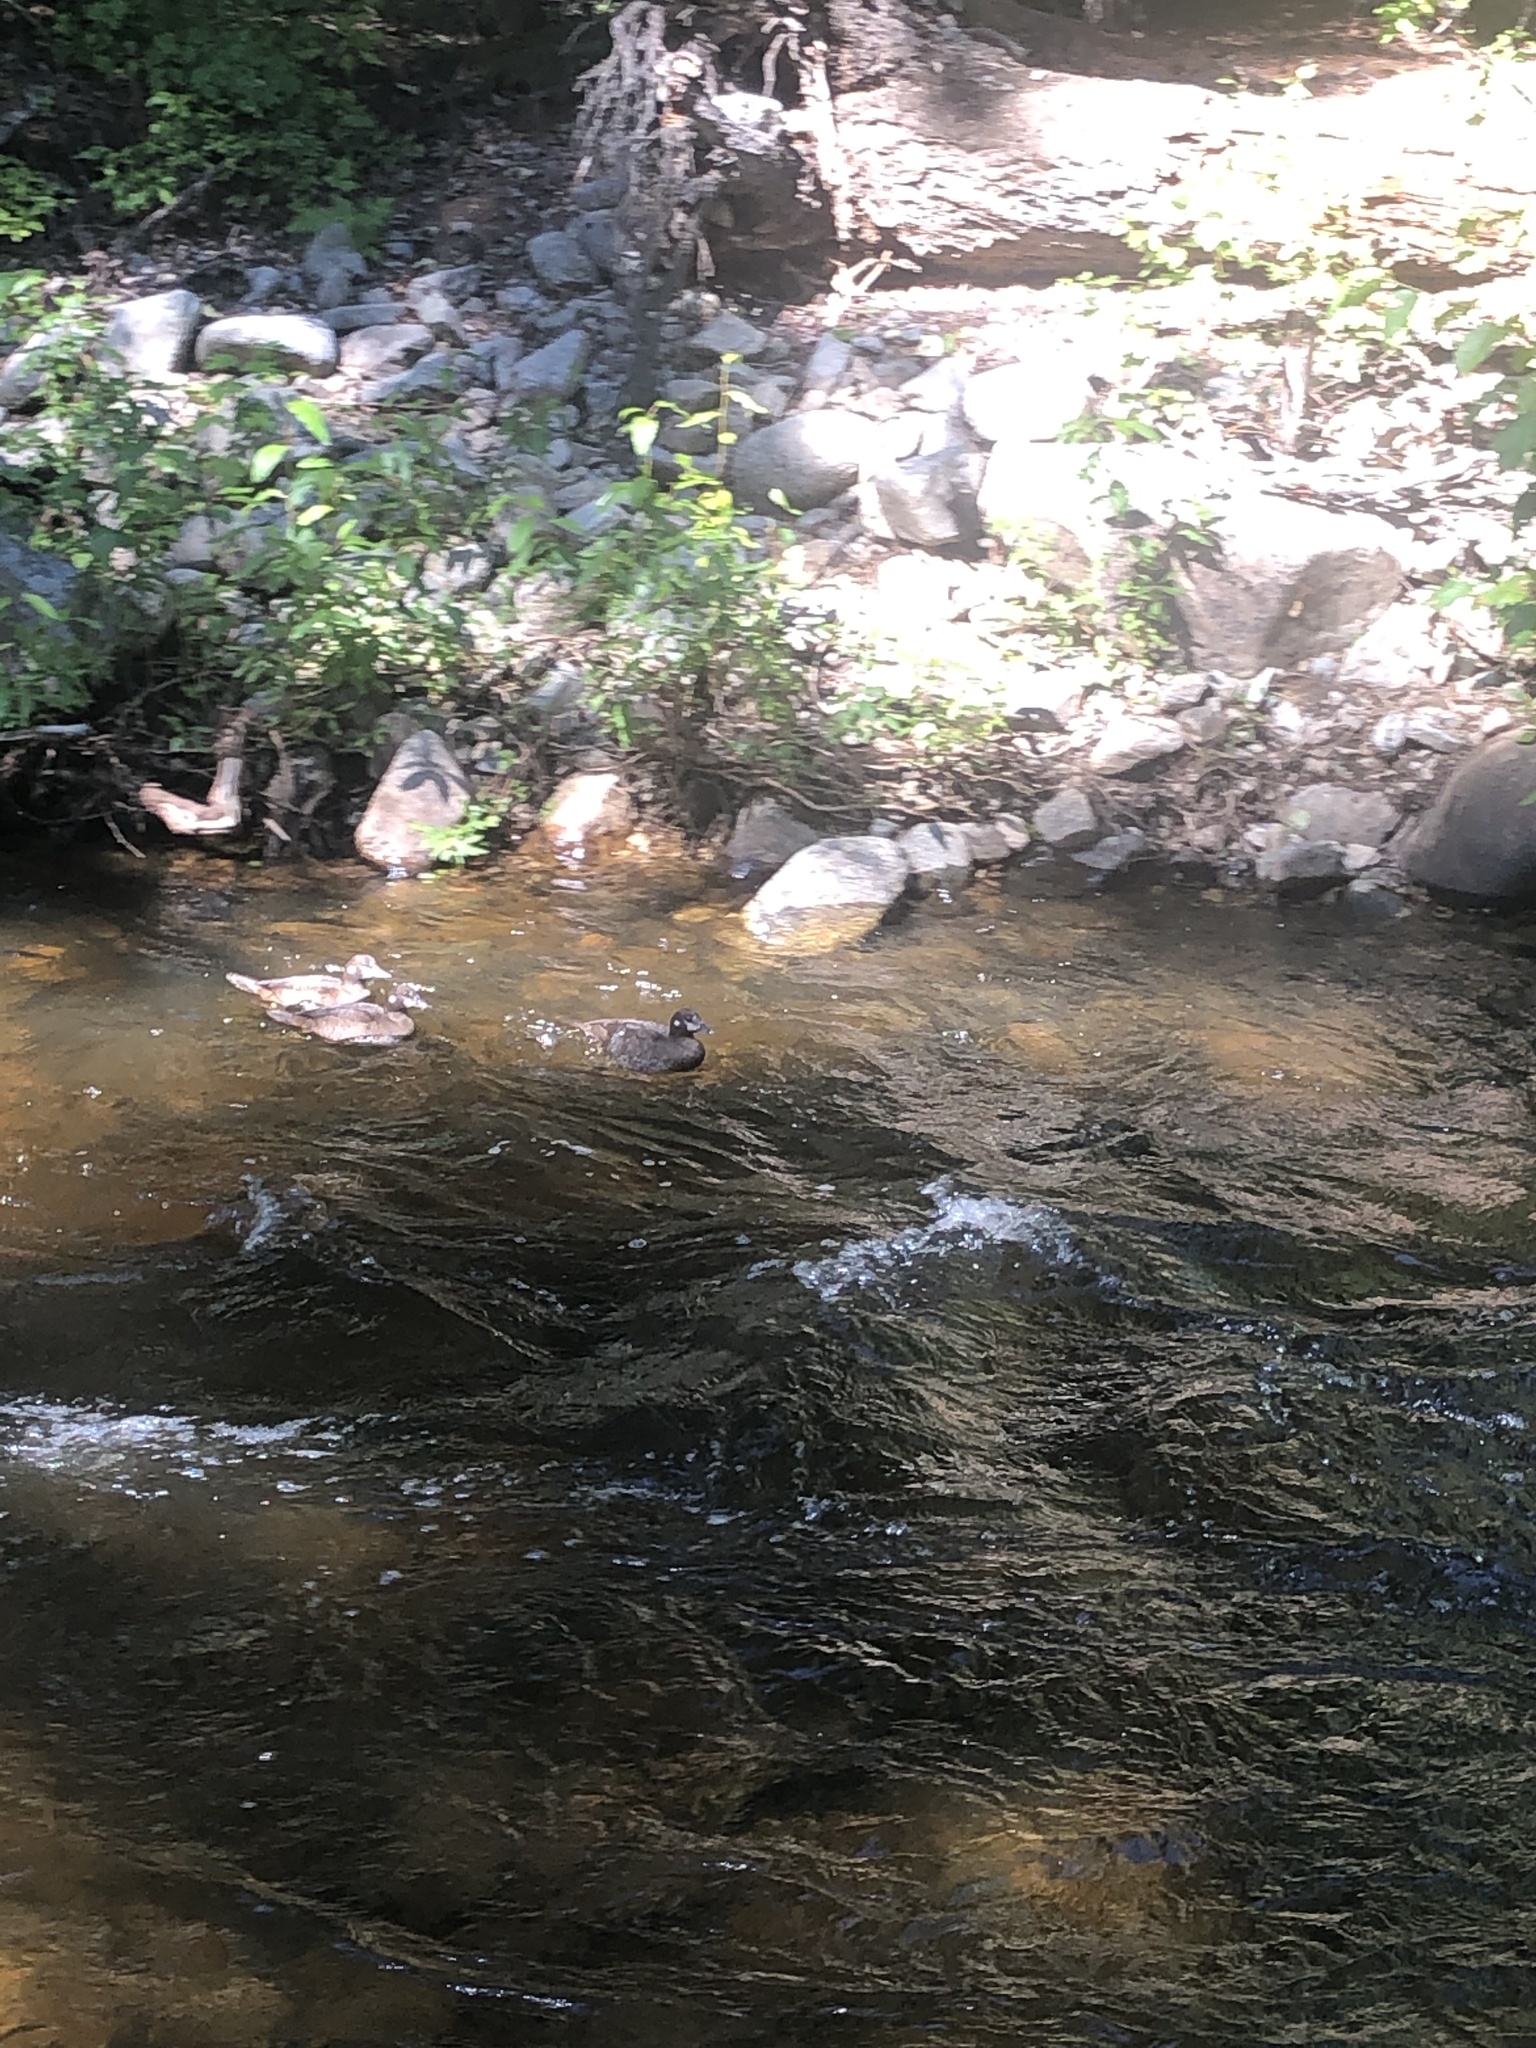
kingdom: Animalia
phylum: Chordata
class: Aves
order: Anseriformes
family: Anatidae
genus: Histrionicus
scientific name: Histrionicus histrionicus
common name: Harlequin duck
